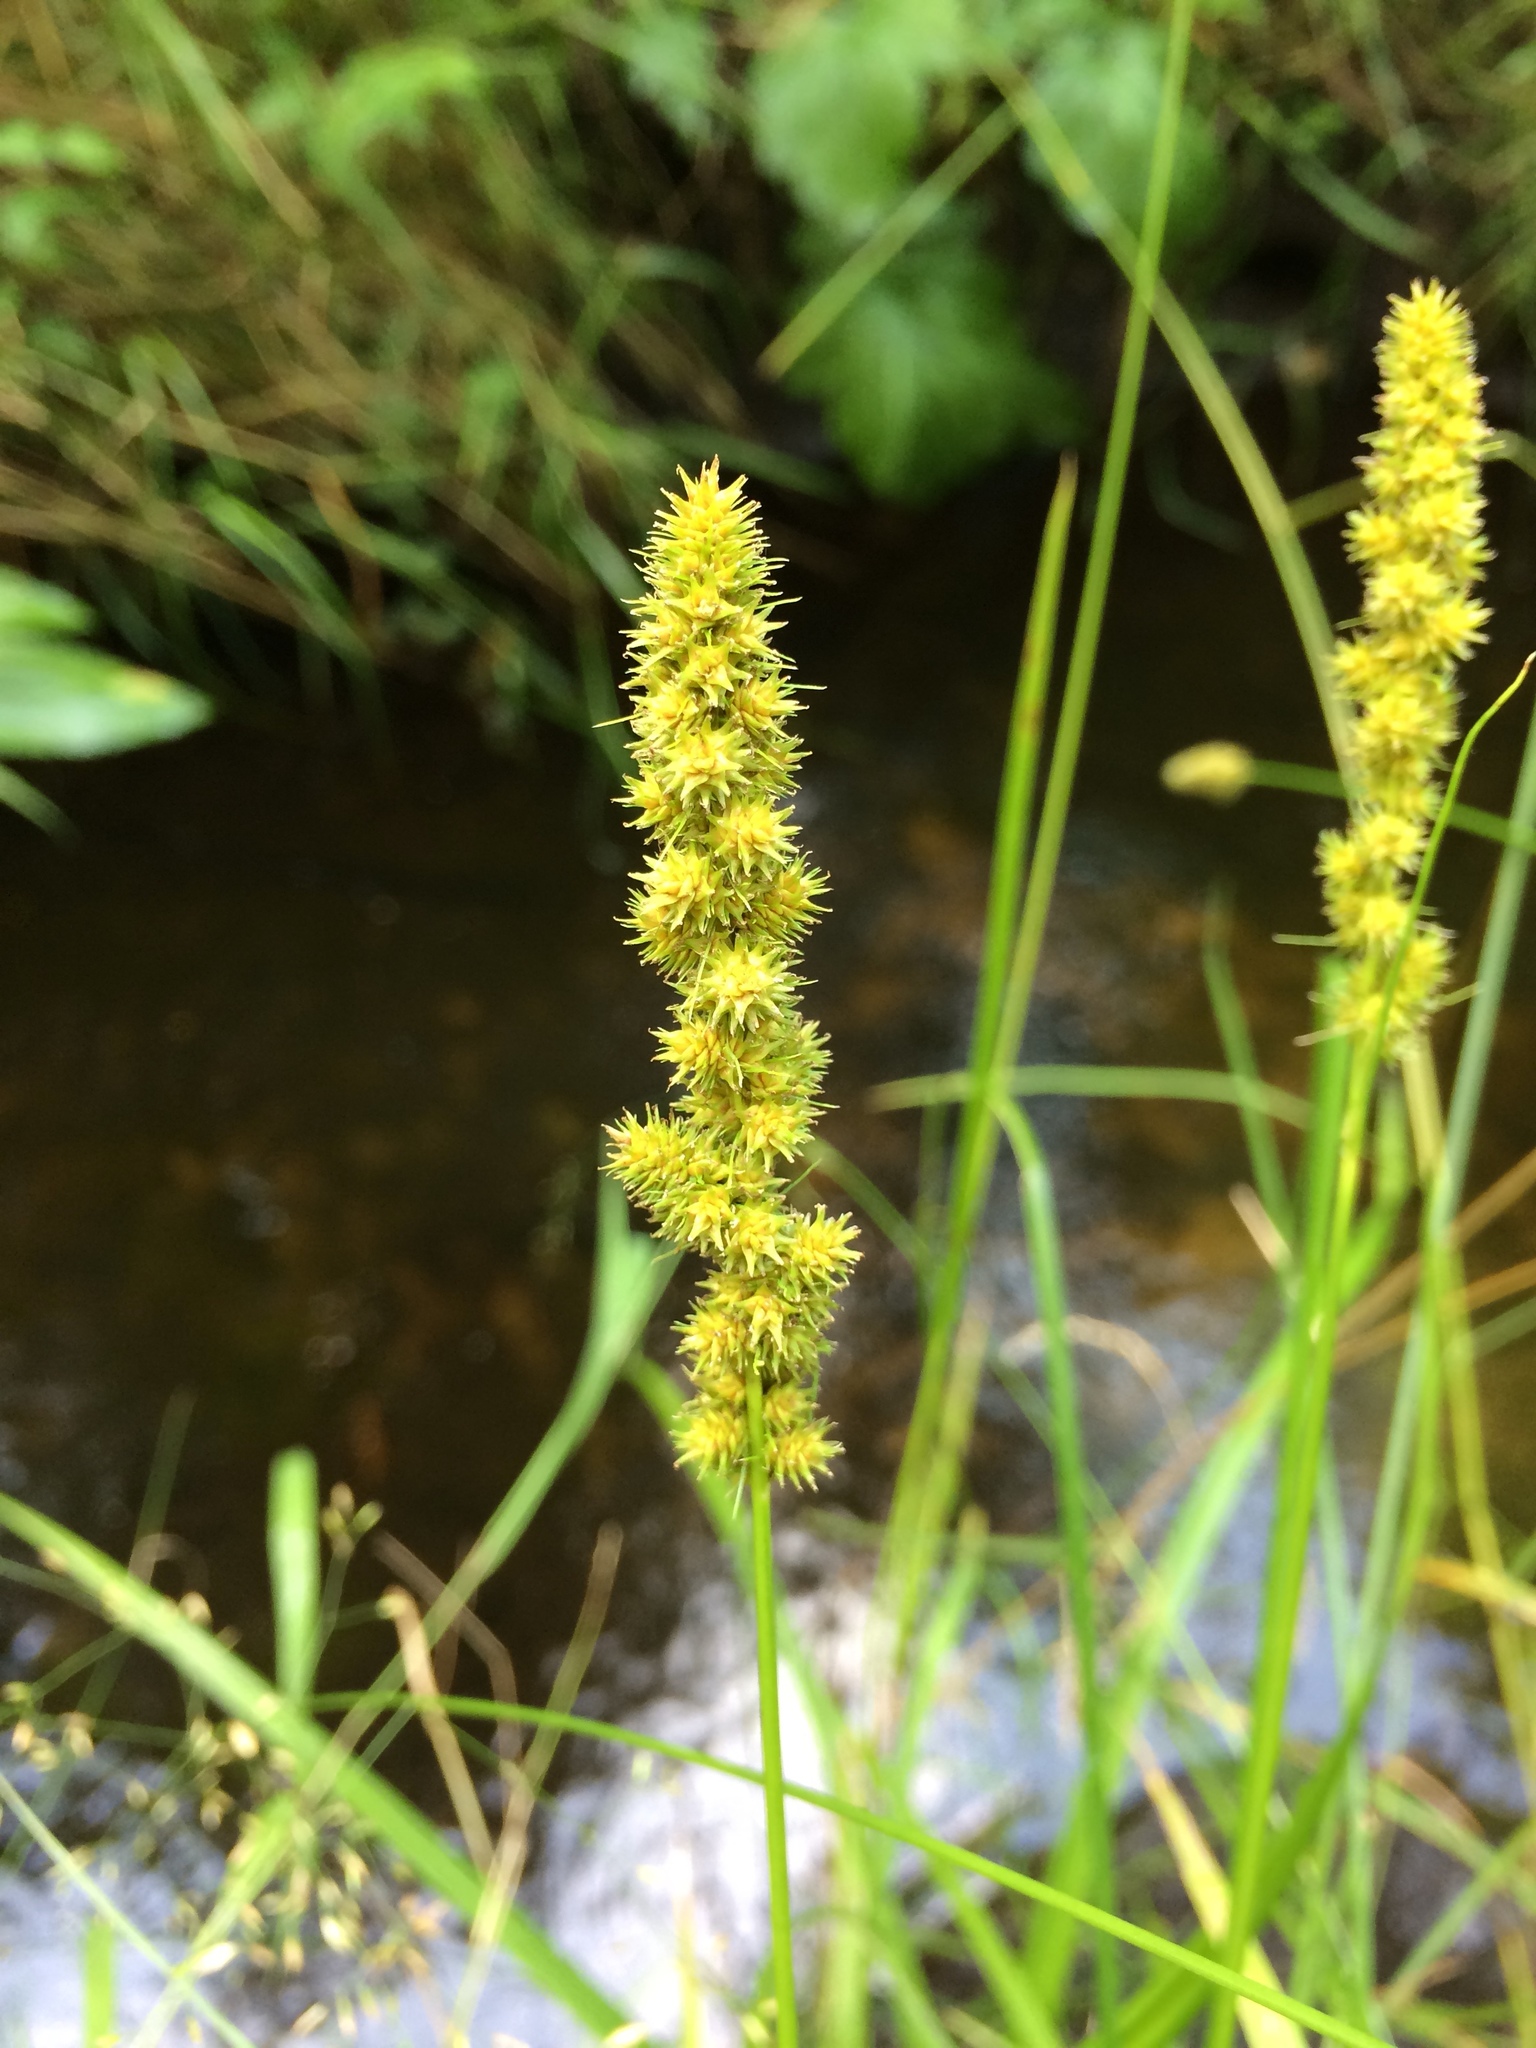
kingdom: Plantae
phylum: Tracheophyta
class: Liliopsida
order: Poales
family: Cyperaceae
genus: Carex
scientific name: Carex vulpinoidea
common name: American fox-sedge
